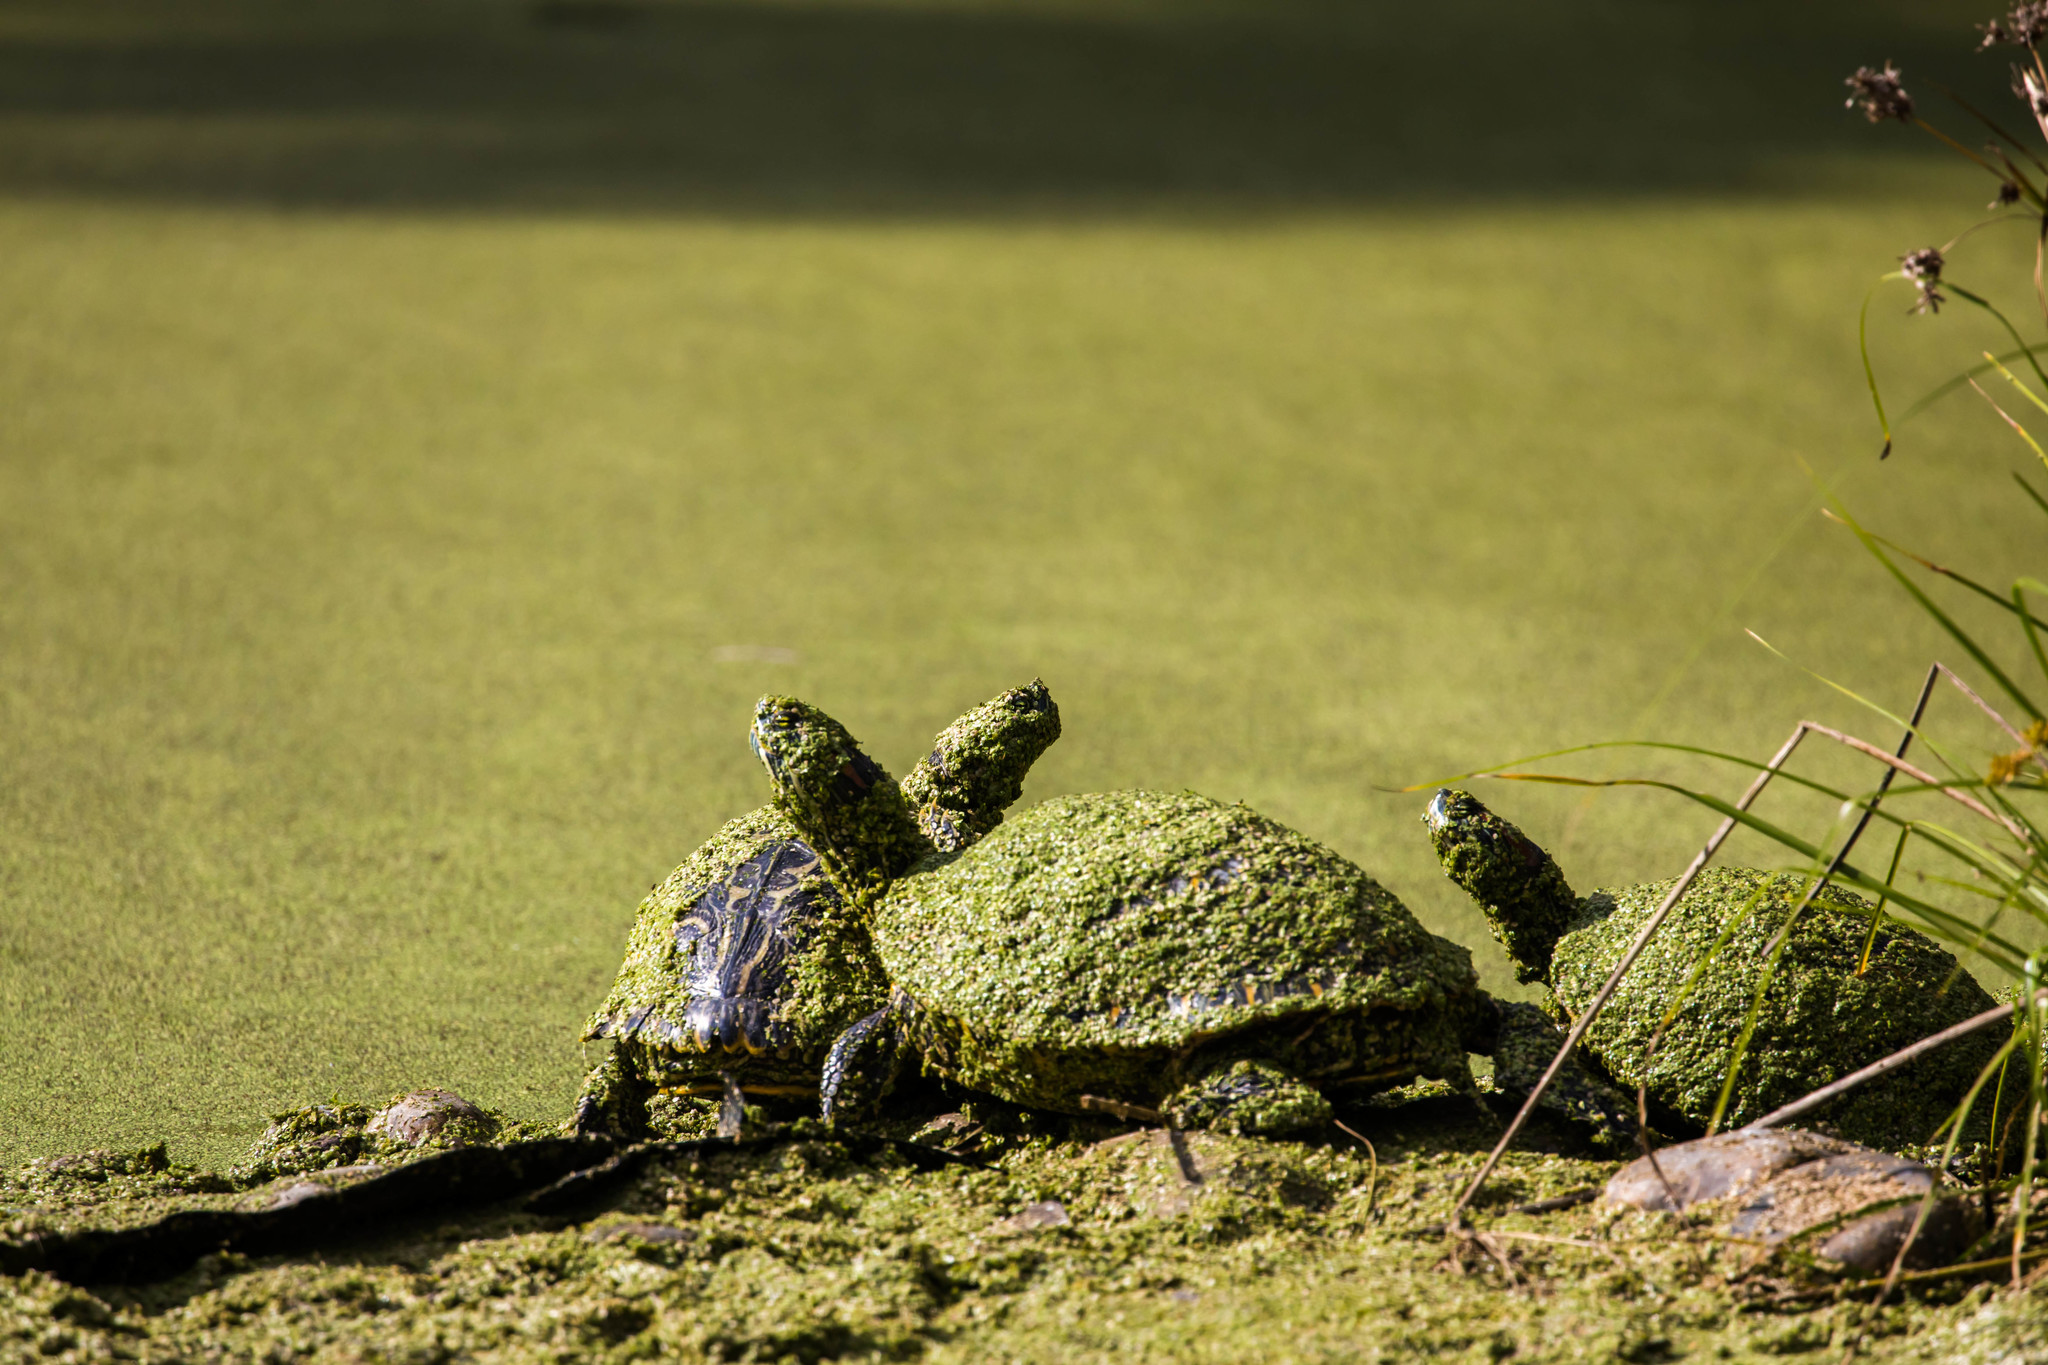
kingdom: Animalia
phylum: Chordata
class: Testudines
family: Emydidae
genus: Trachemys
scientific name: Trachemys scripta
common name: Slider
